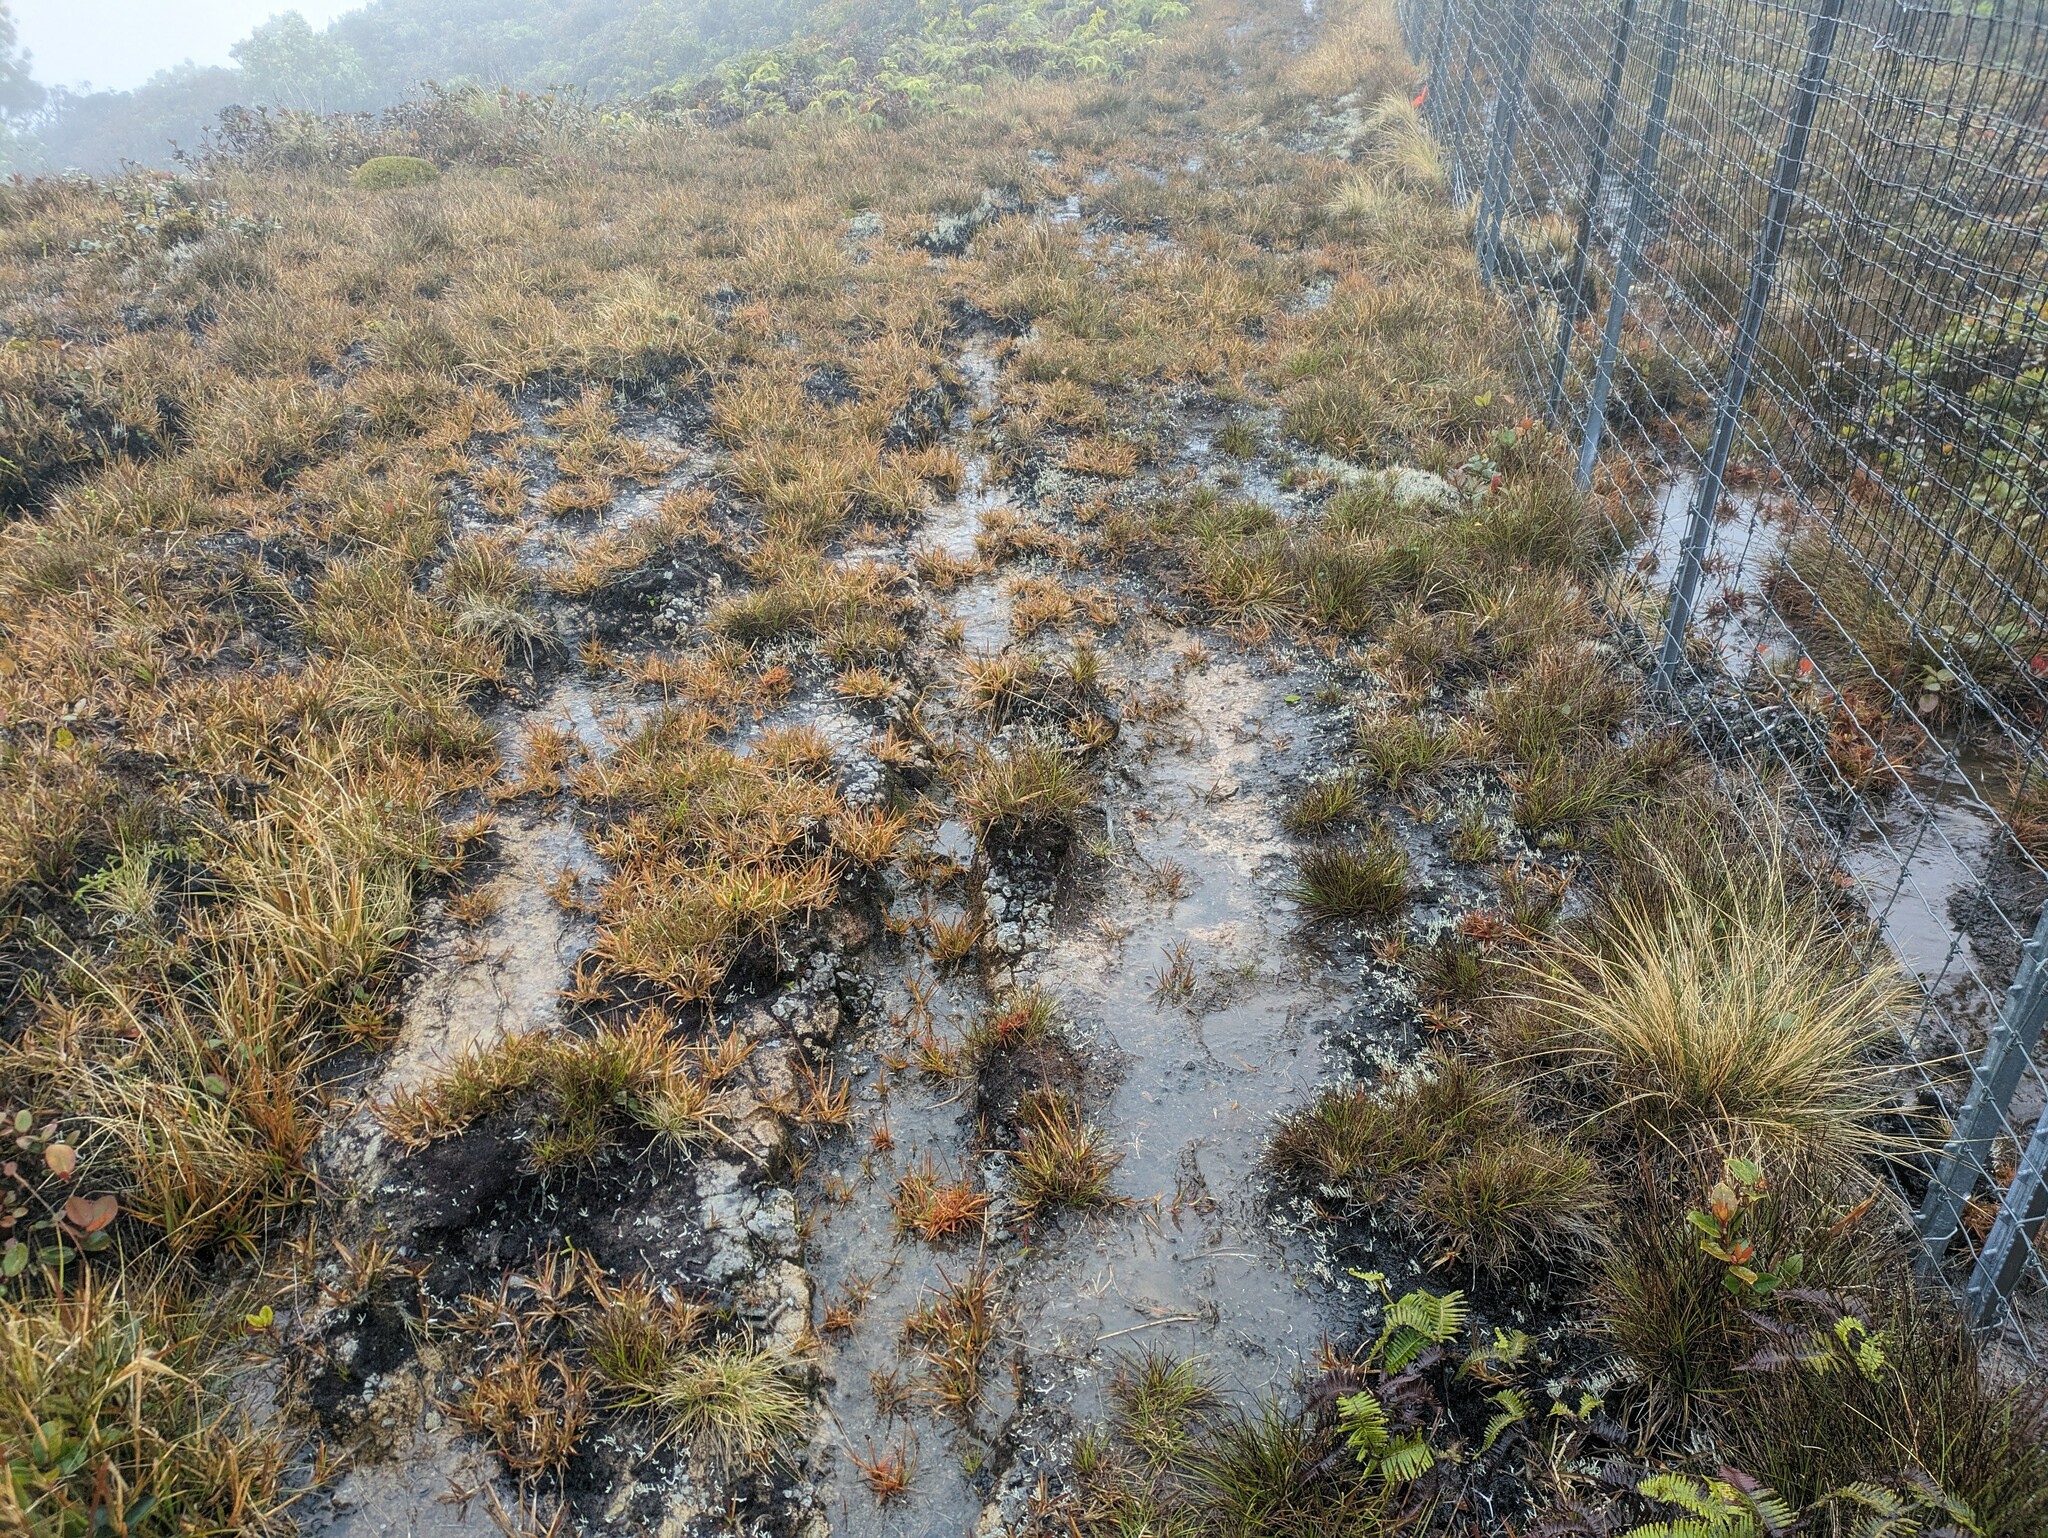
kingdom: Plantae
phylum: Tracheophyta
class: Liliopsida
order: Poales
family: Juncaceae
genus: Juncus
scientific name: Juncus planifolius
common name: Broadleaf rush
